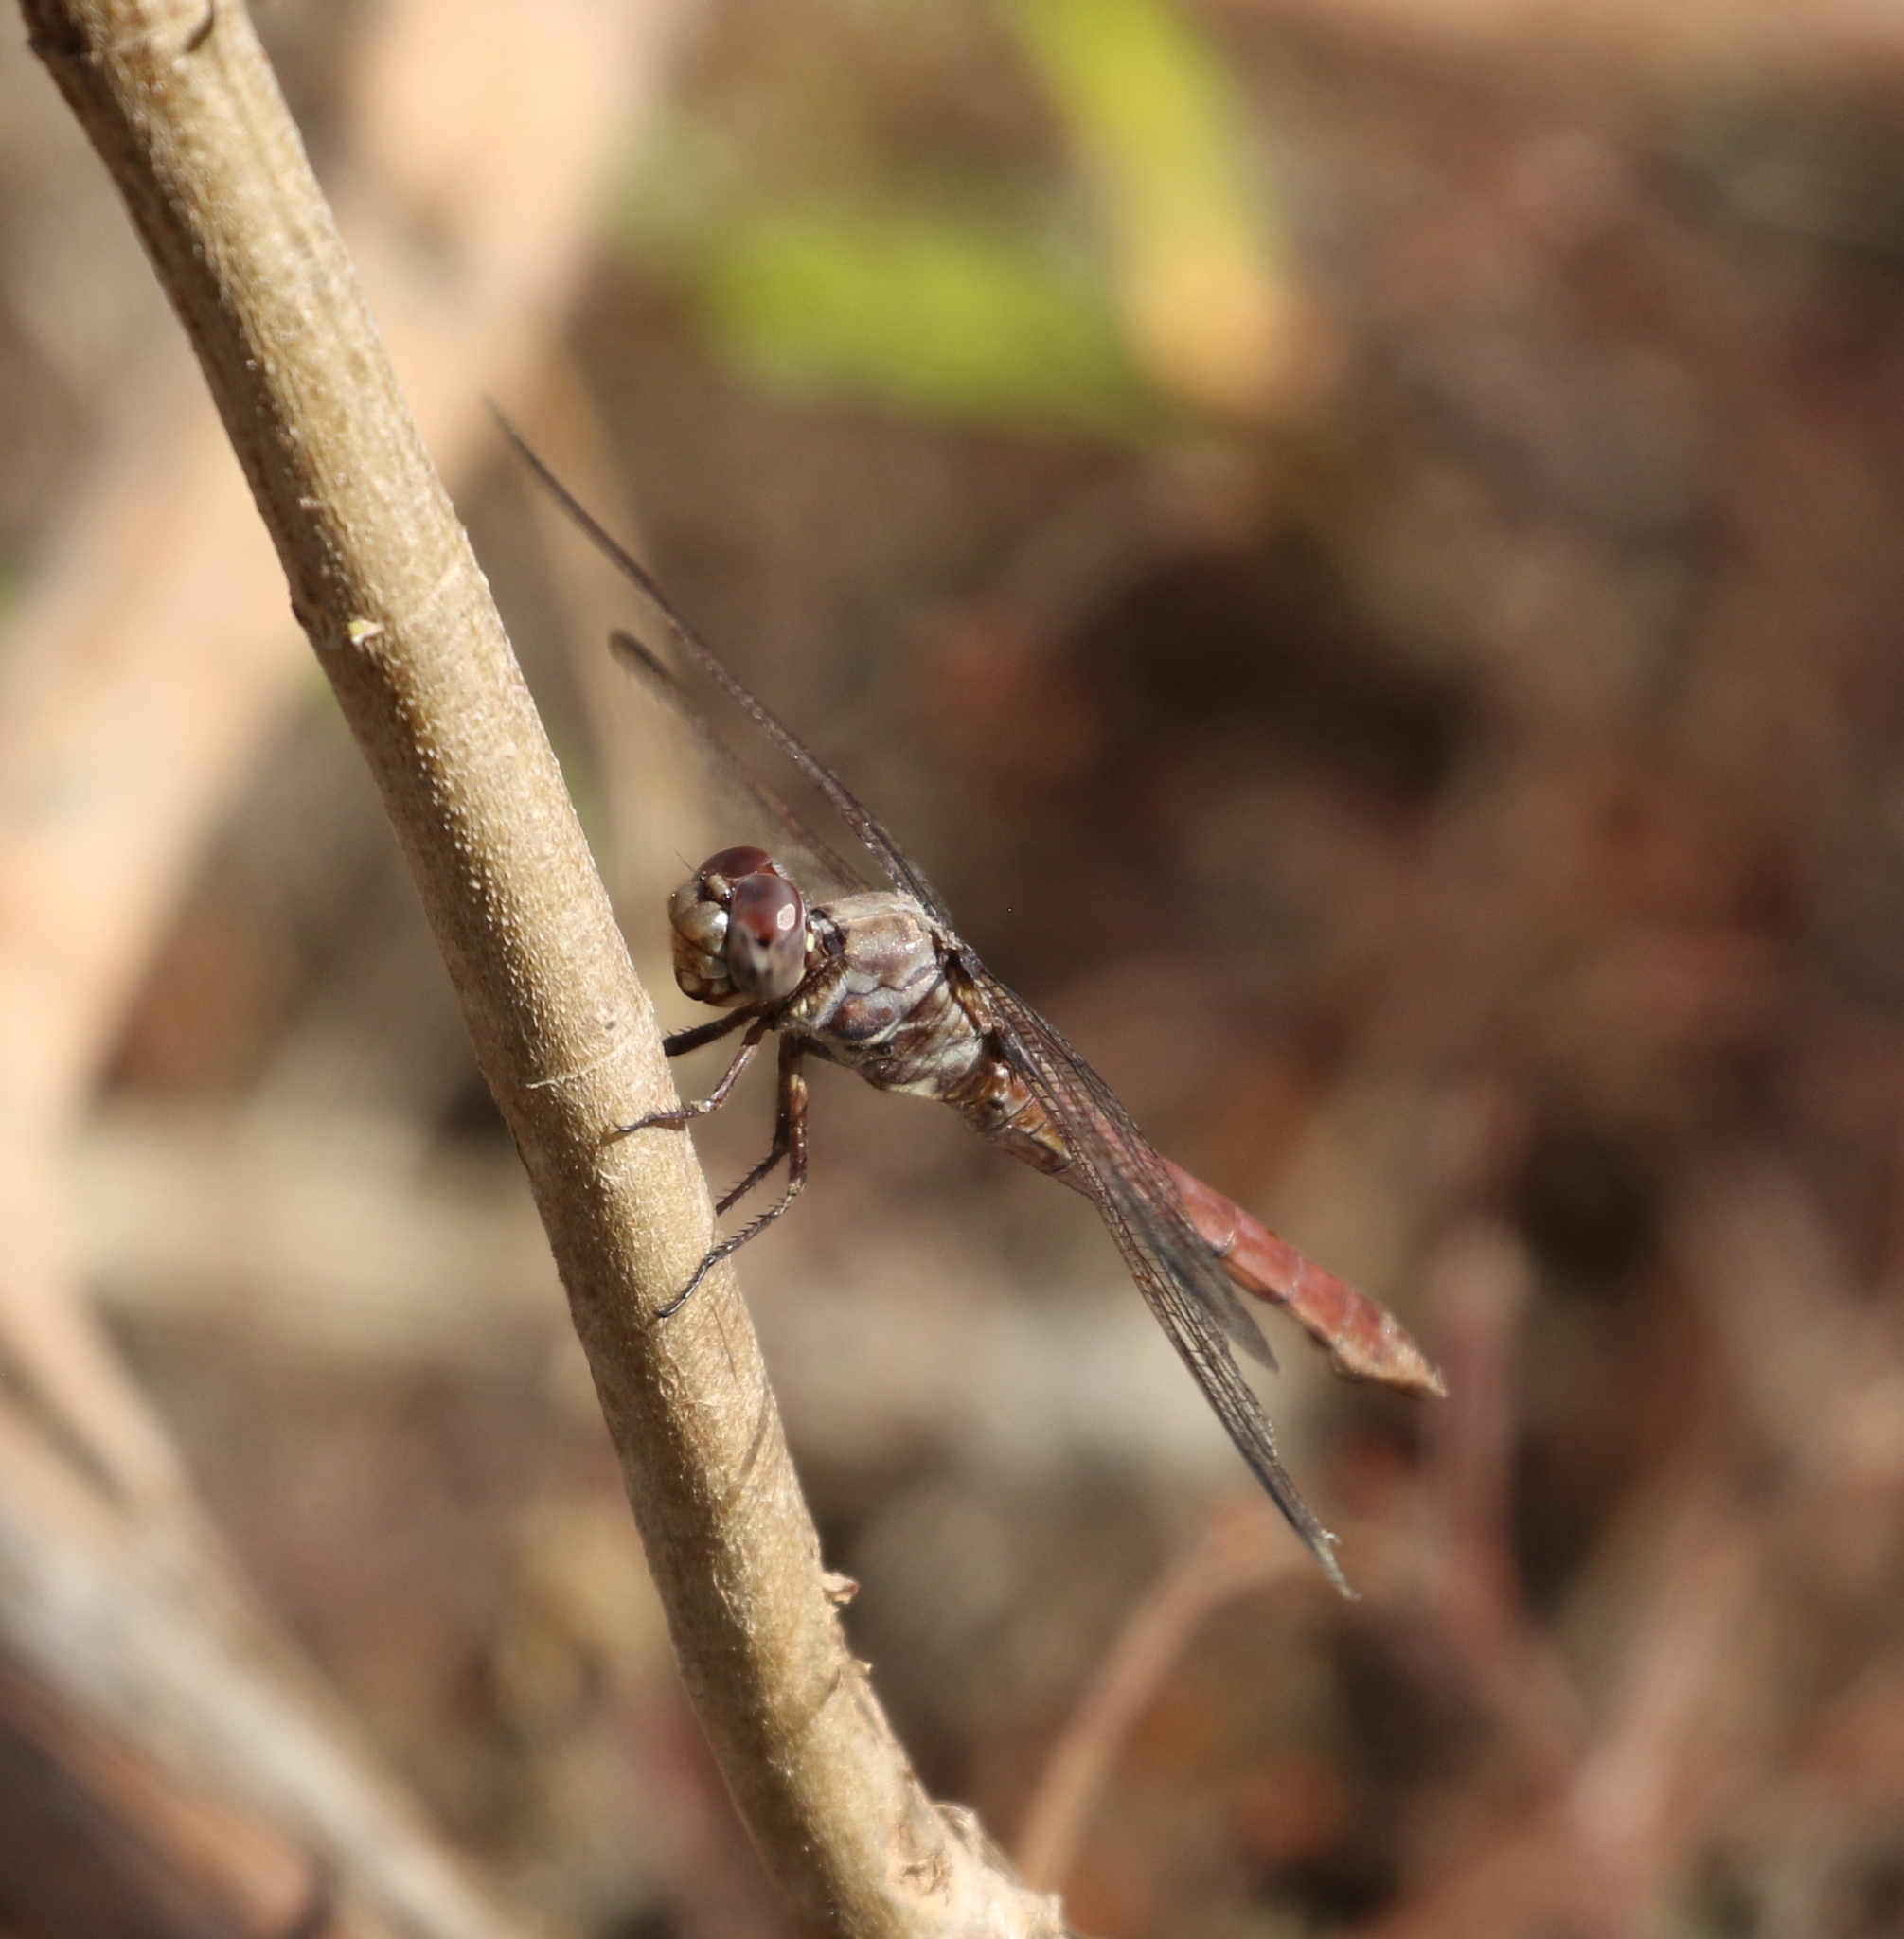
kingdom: Animalia
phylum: Arthropoda
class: Insecta
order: Odonata
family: Libellulidae
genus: Orthemis
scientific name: Orthemis ferruginea
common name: Roseate skimmer
